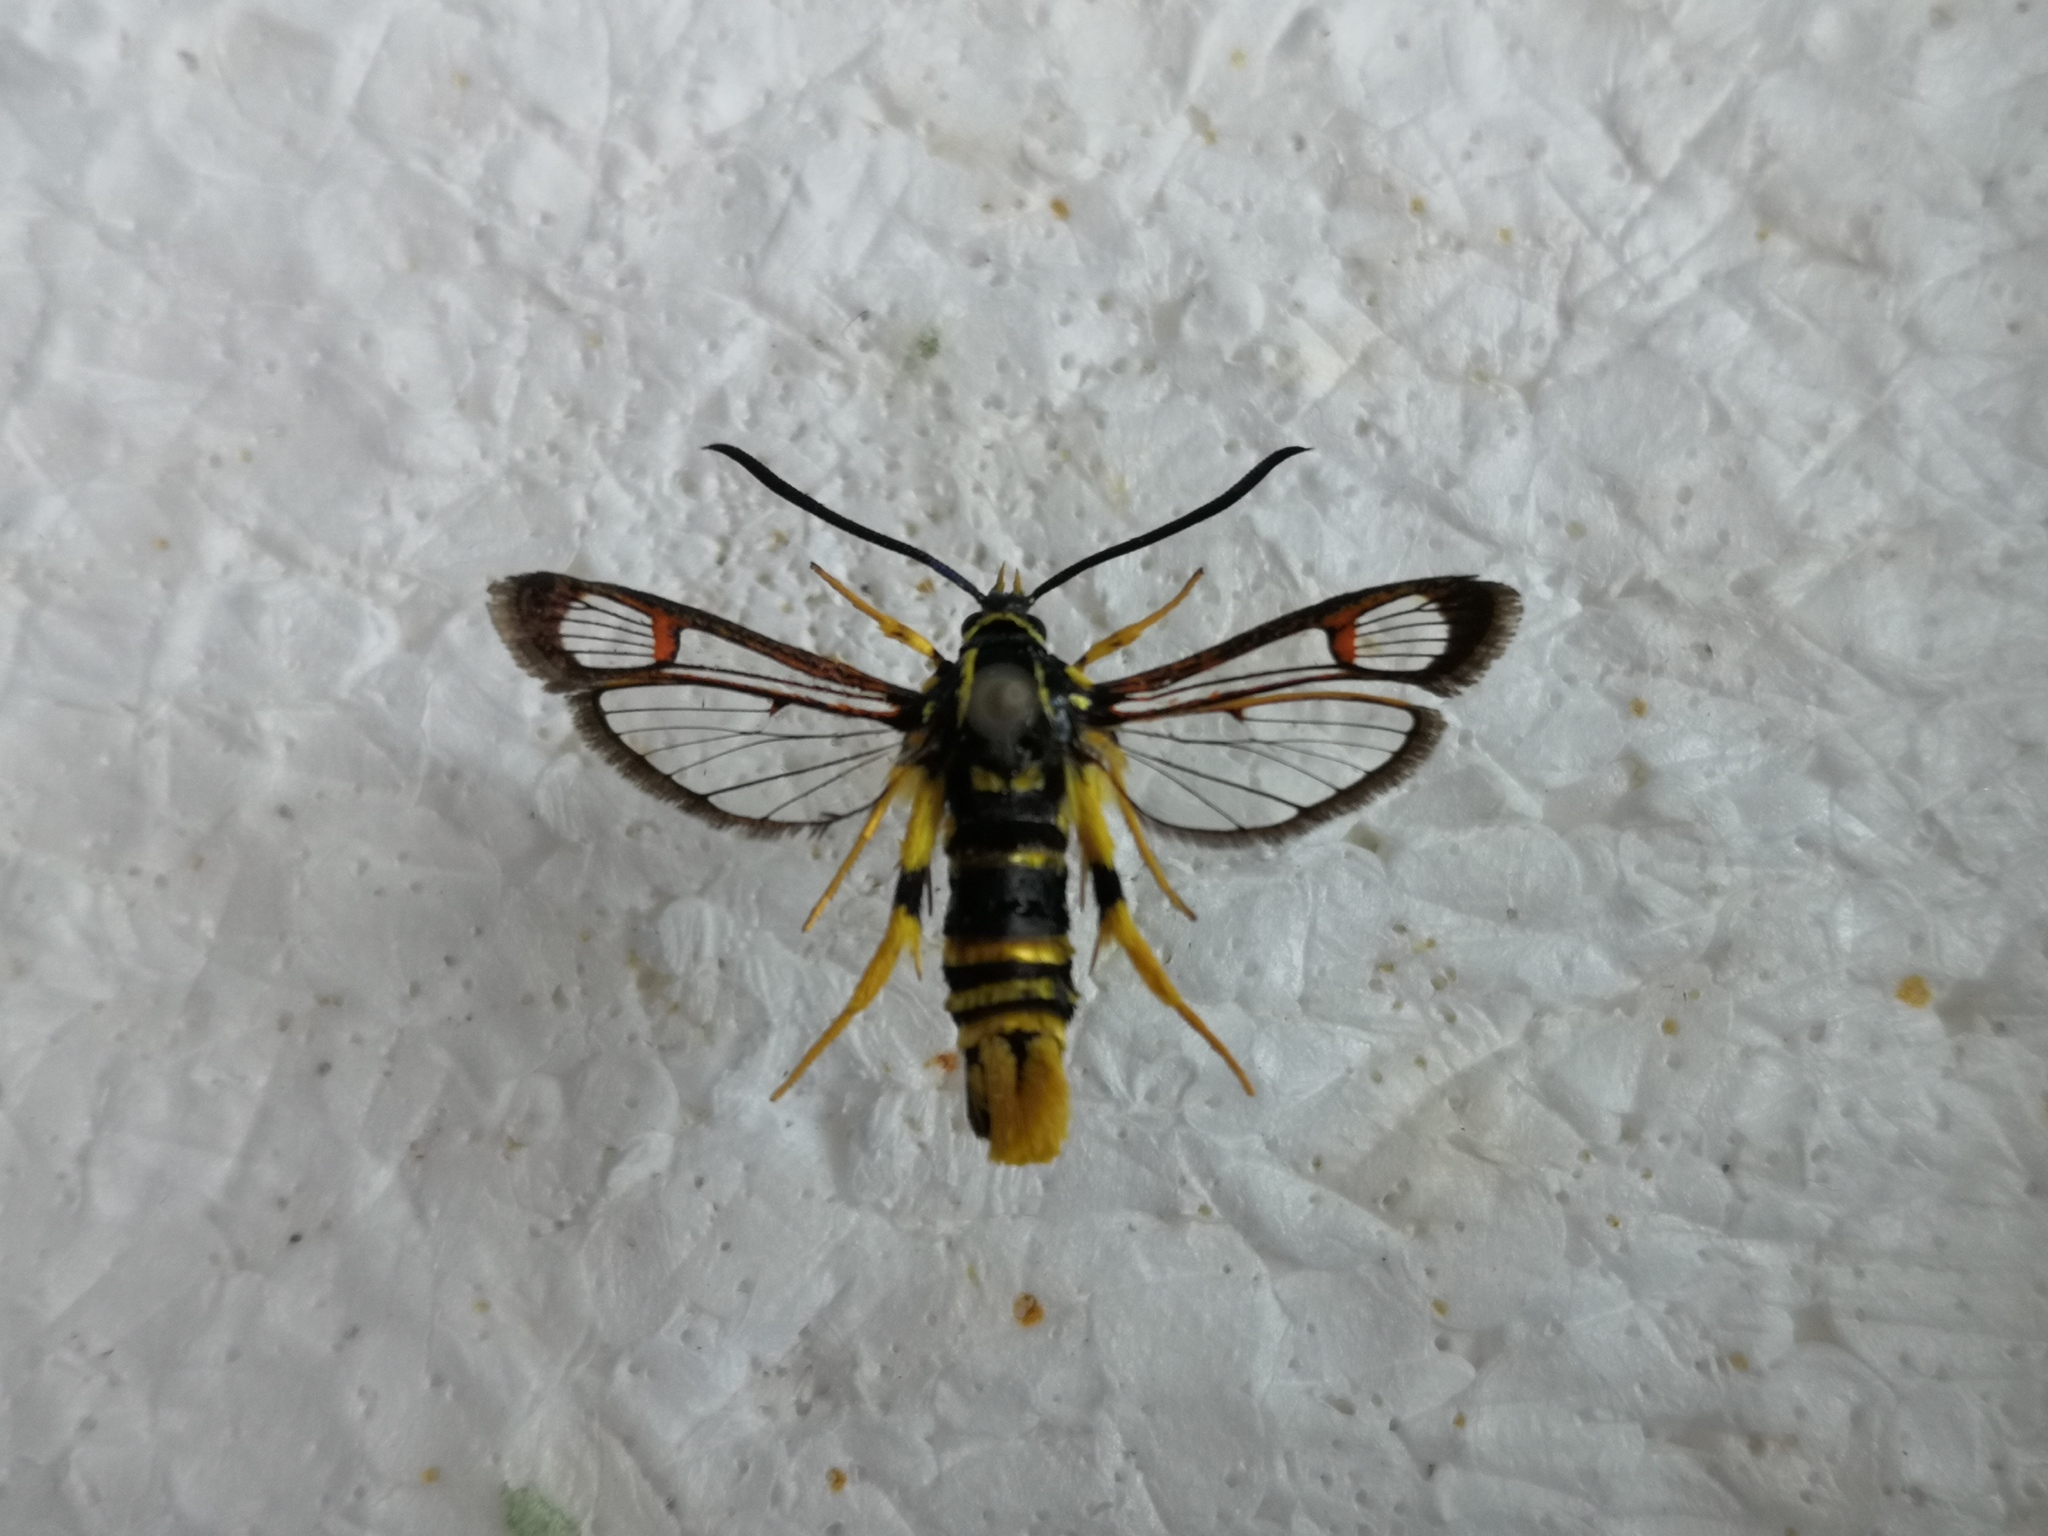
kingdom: Animalia
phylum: Arthropoda
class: Insecta
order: Lepidoptera
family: Sesiidae
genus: Synanthedon
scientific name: Synanthedon vespiformis
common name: Yellow-legged clearwing
